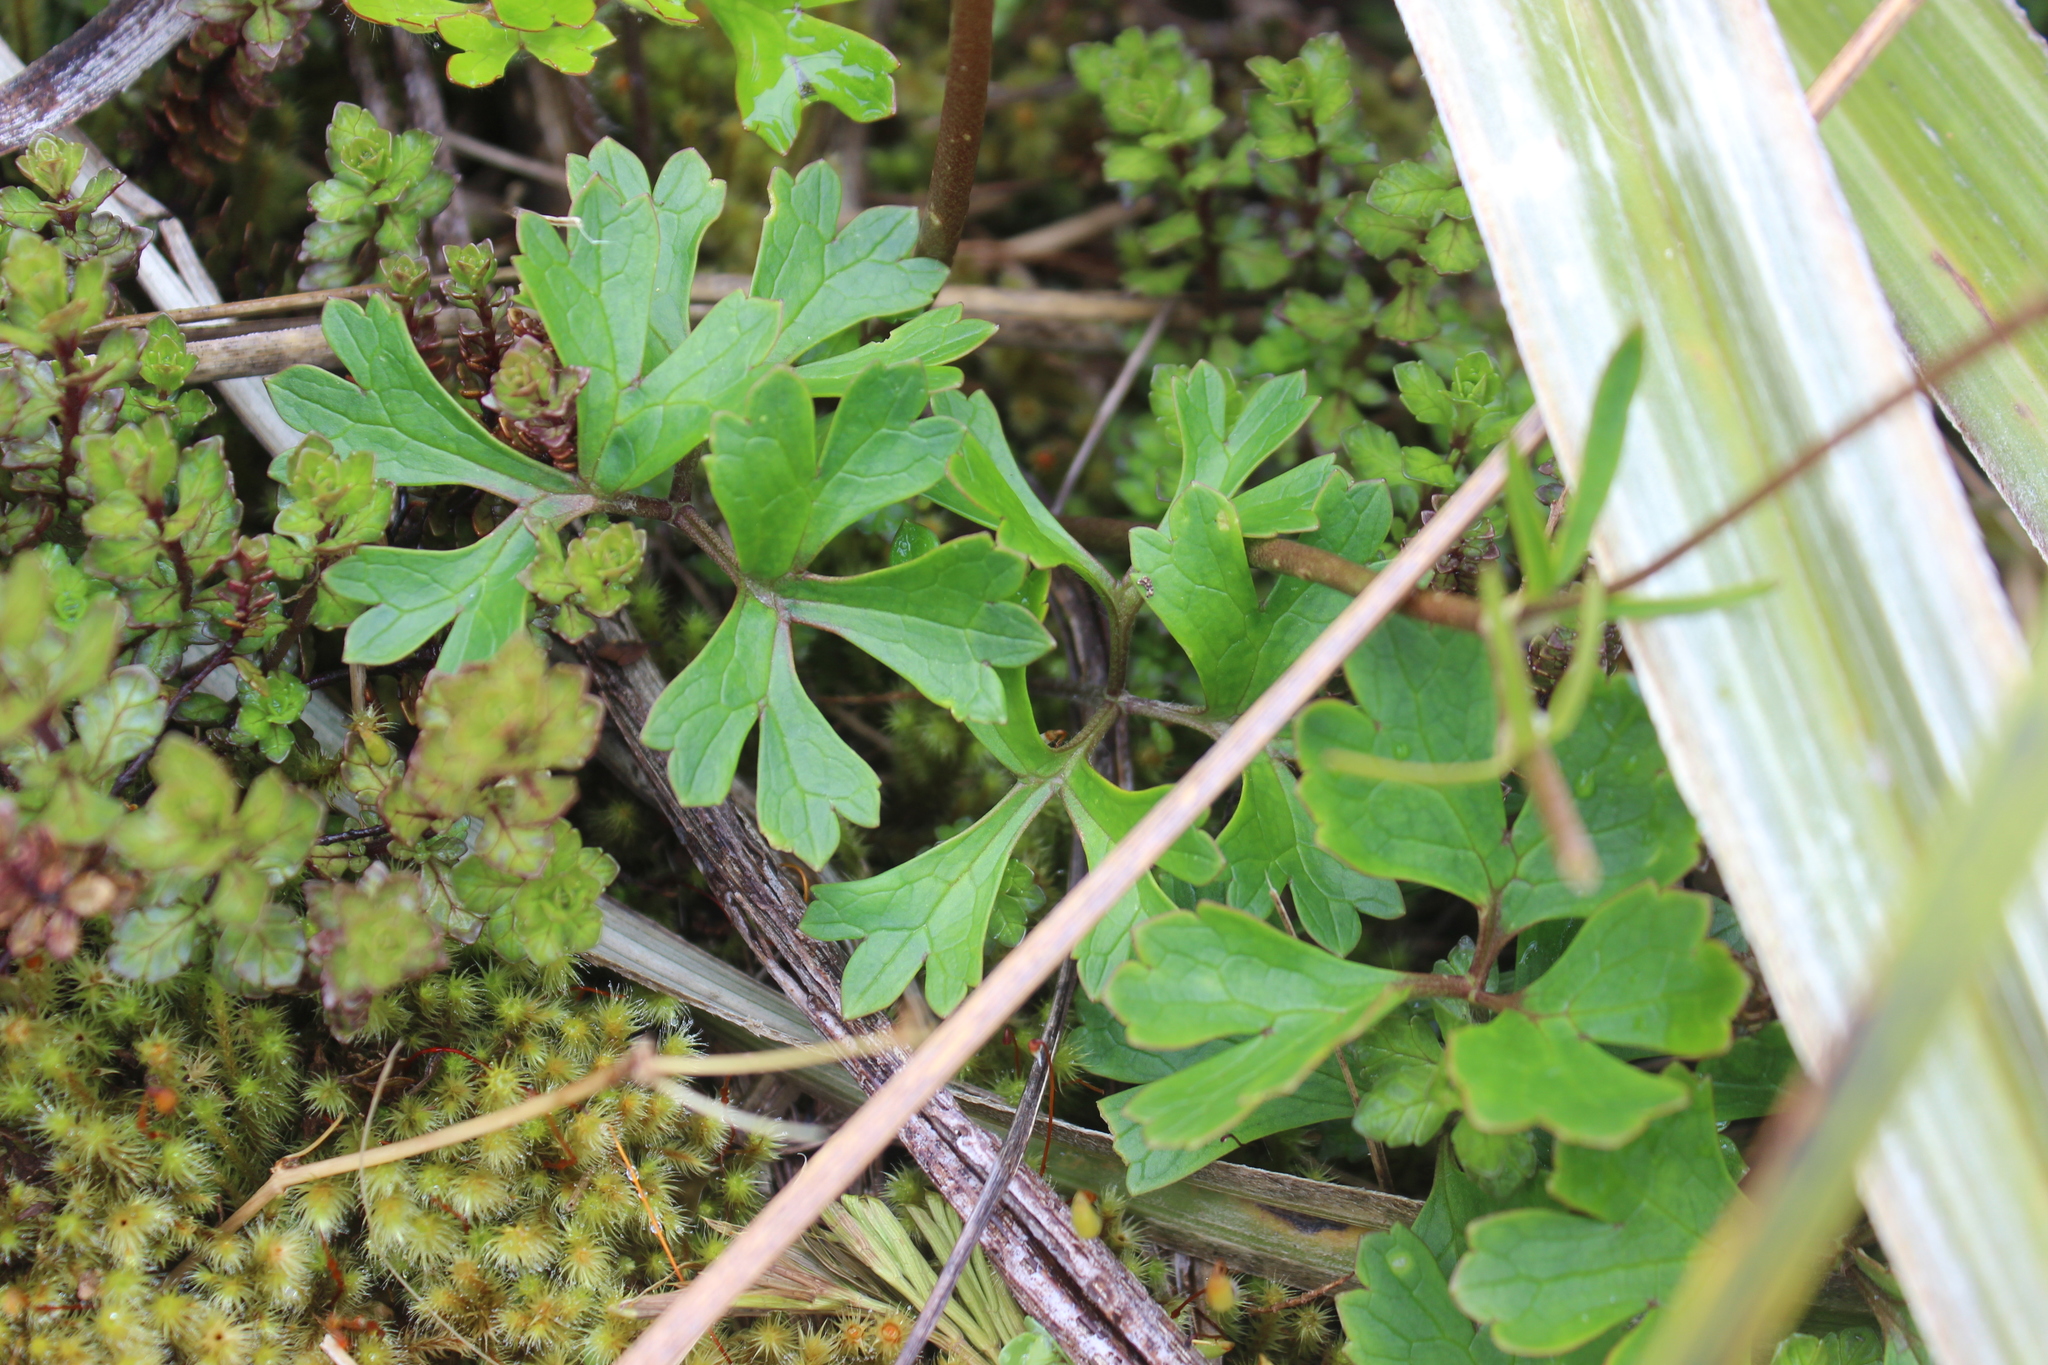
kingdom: Plantae
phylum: Tracheophyta
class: Magnoliopsida
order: Ranunculales
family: Ranunculaceae
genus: Ranunculus
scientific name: Ranunculus verticillatus
